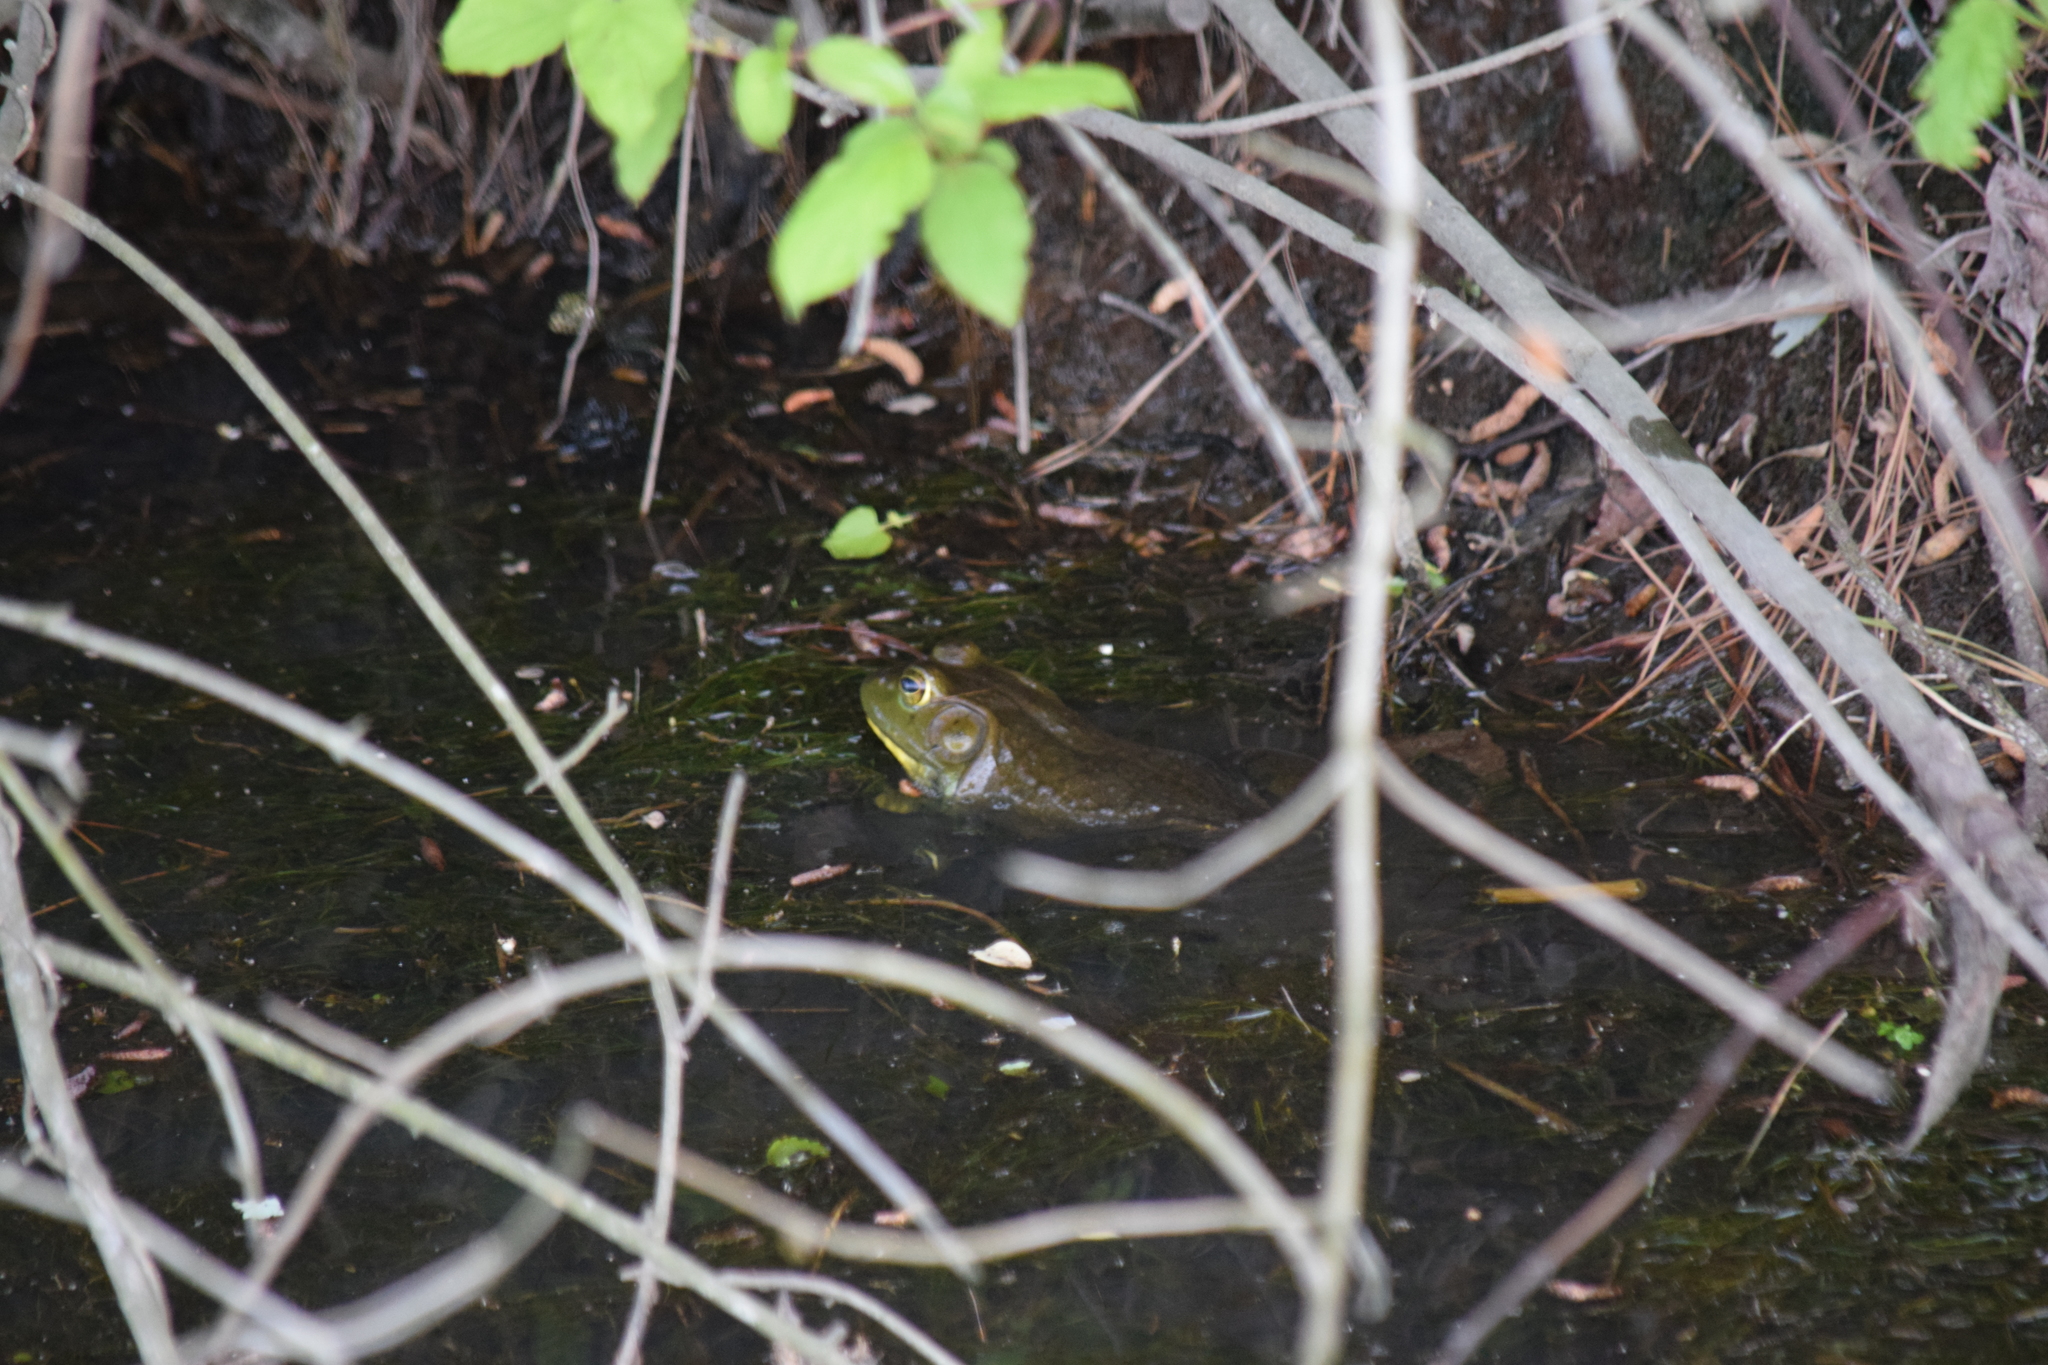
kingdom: Animalia
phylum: Chordata
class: Amphibia
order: Anura
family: Ranidae
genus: Lithobates
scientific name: Lithobates catesbeianus
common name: American bullfrog
